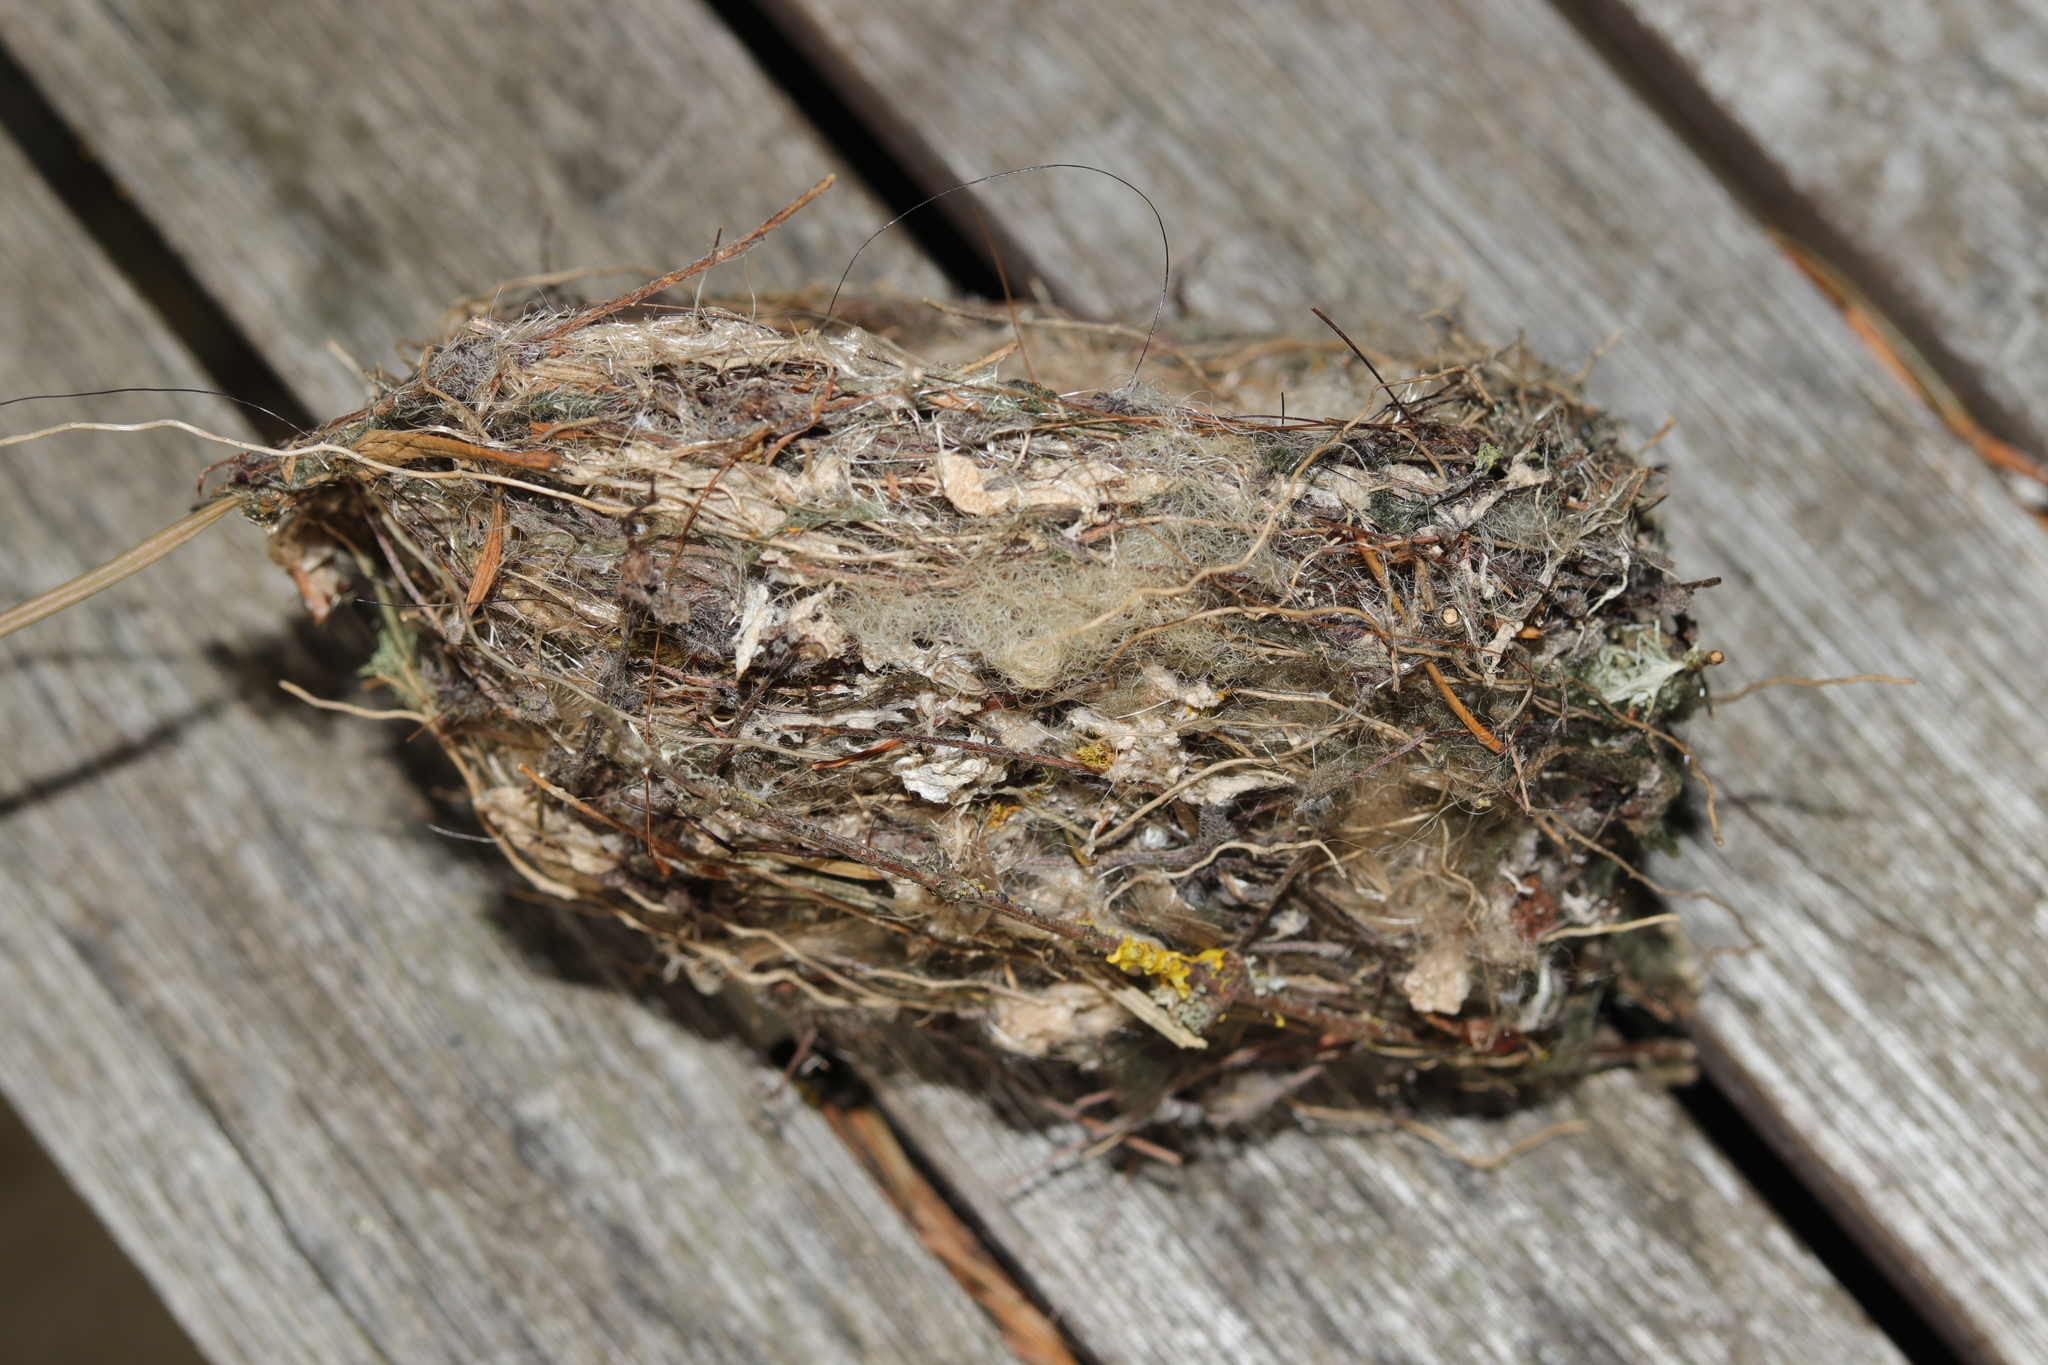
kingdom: Animalia
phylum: Chordata
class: Aves
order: Passeriformes
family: Fringillidae
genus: Fringilla
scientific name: Fringilla coelebs
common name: Common chaffinch
